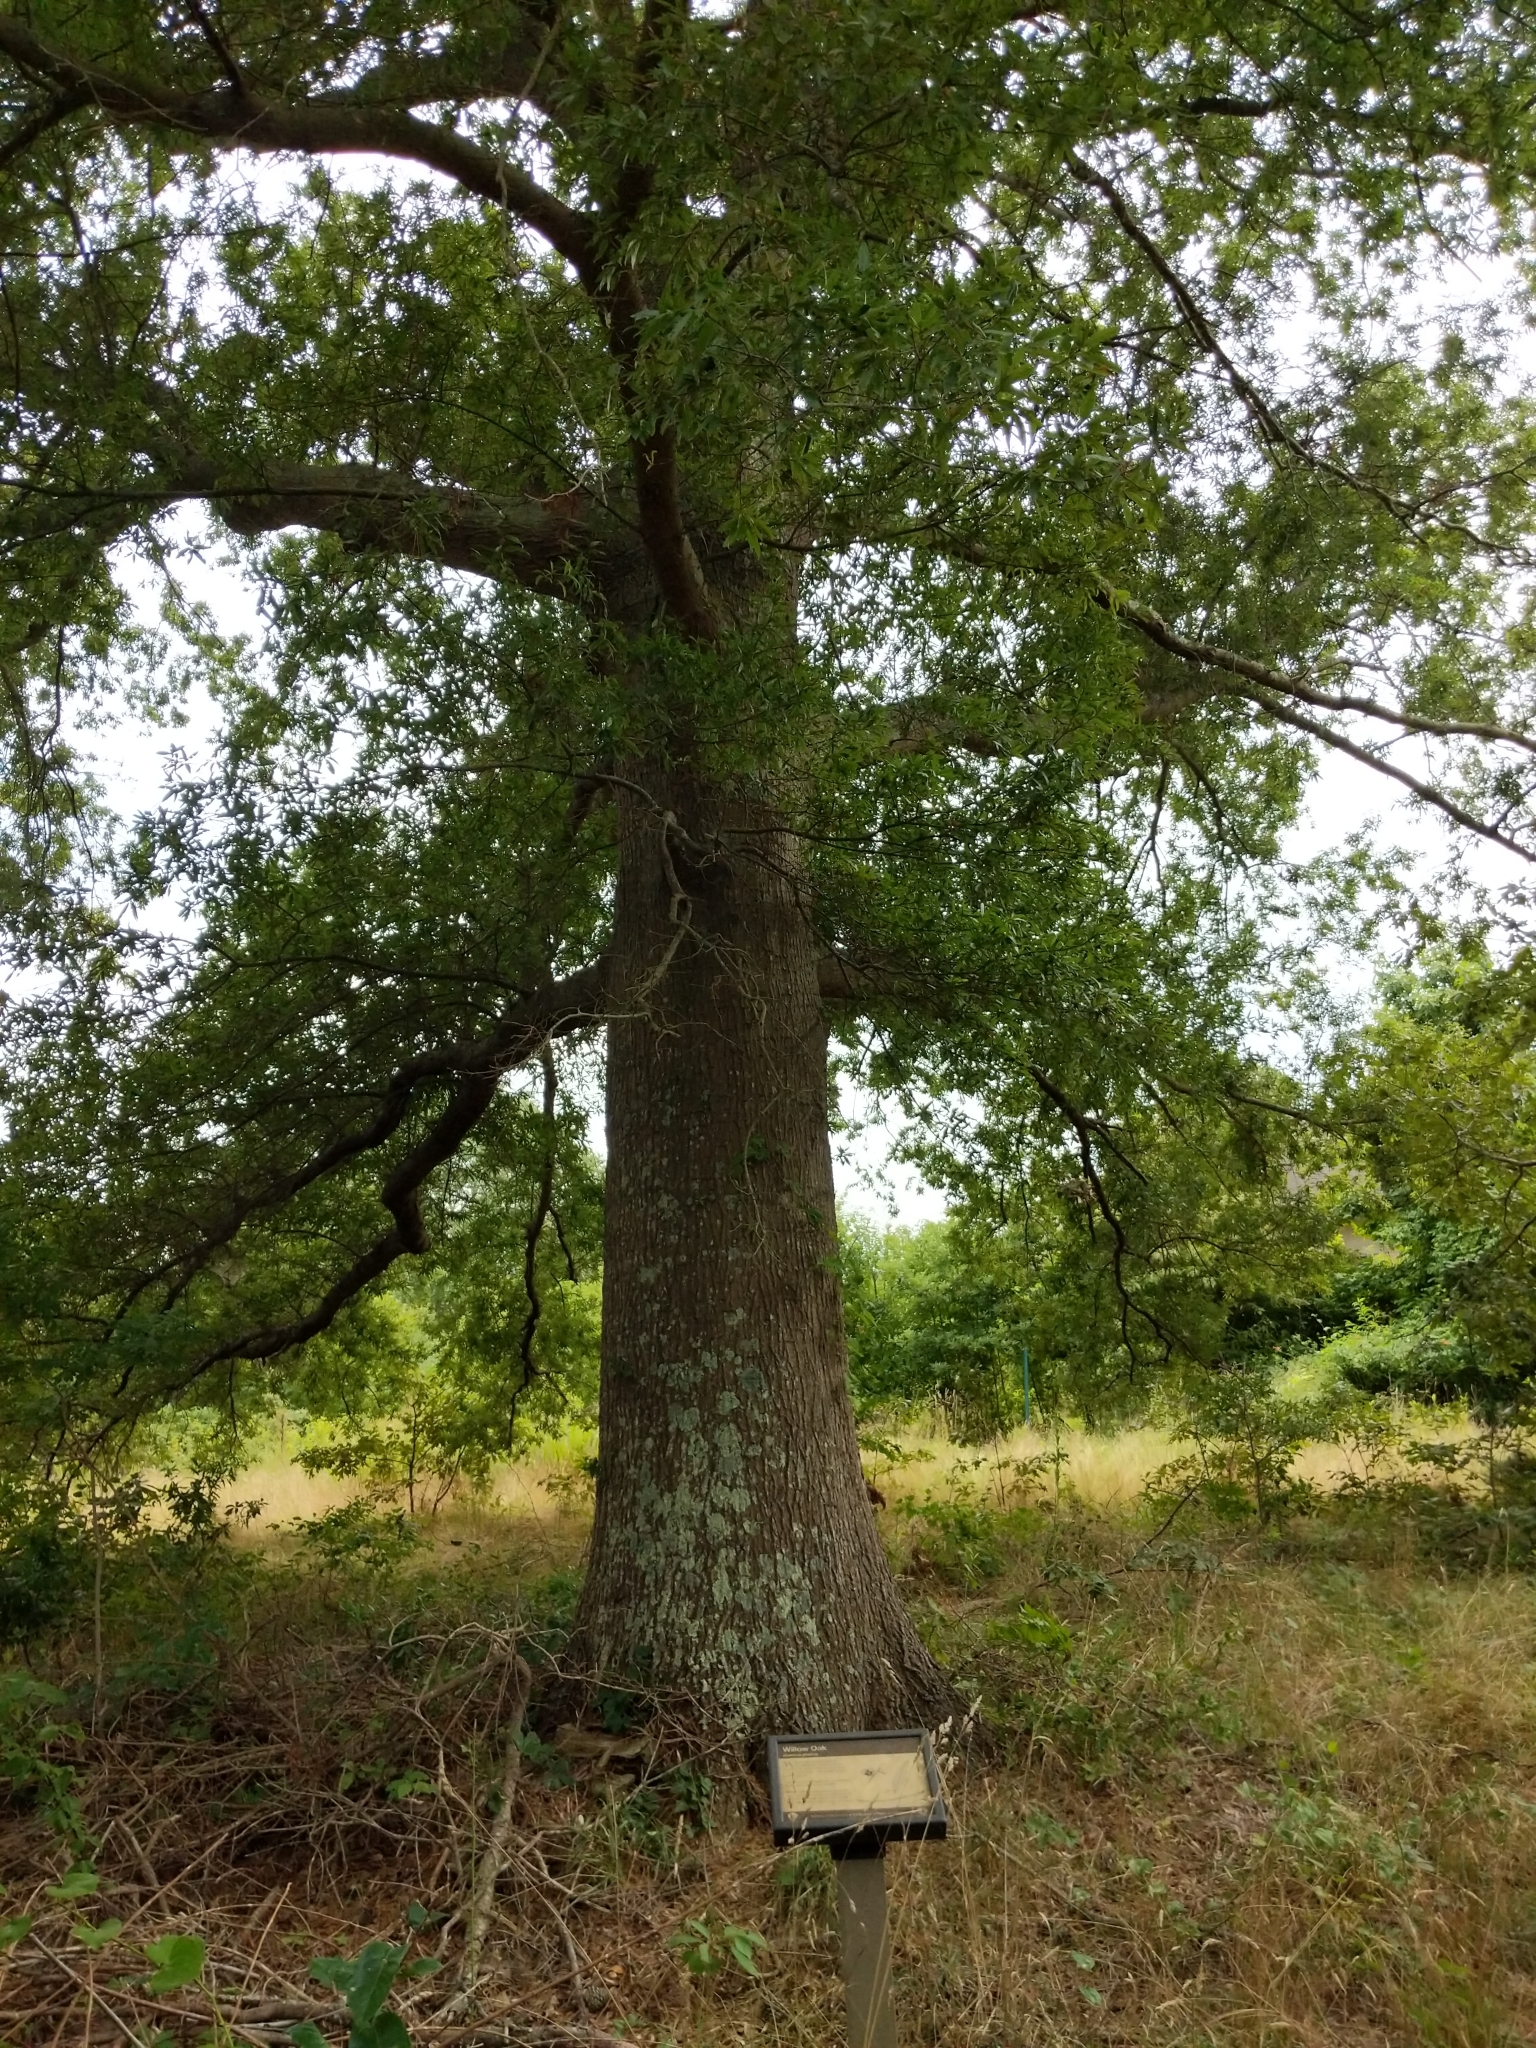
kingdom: Plantae
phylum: Tracheophyta
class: Magnoliopsida
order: Fagales
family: Fagaceae
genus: Quercus
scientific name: Quercus phellos
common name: Willow oak
